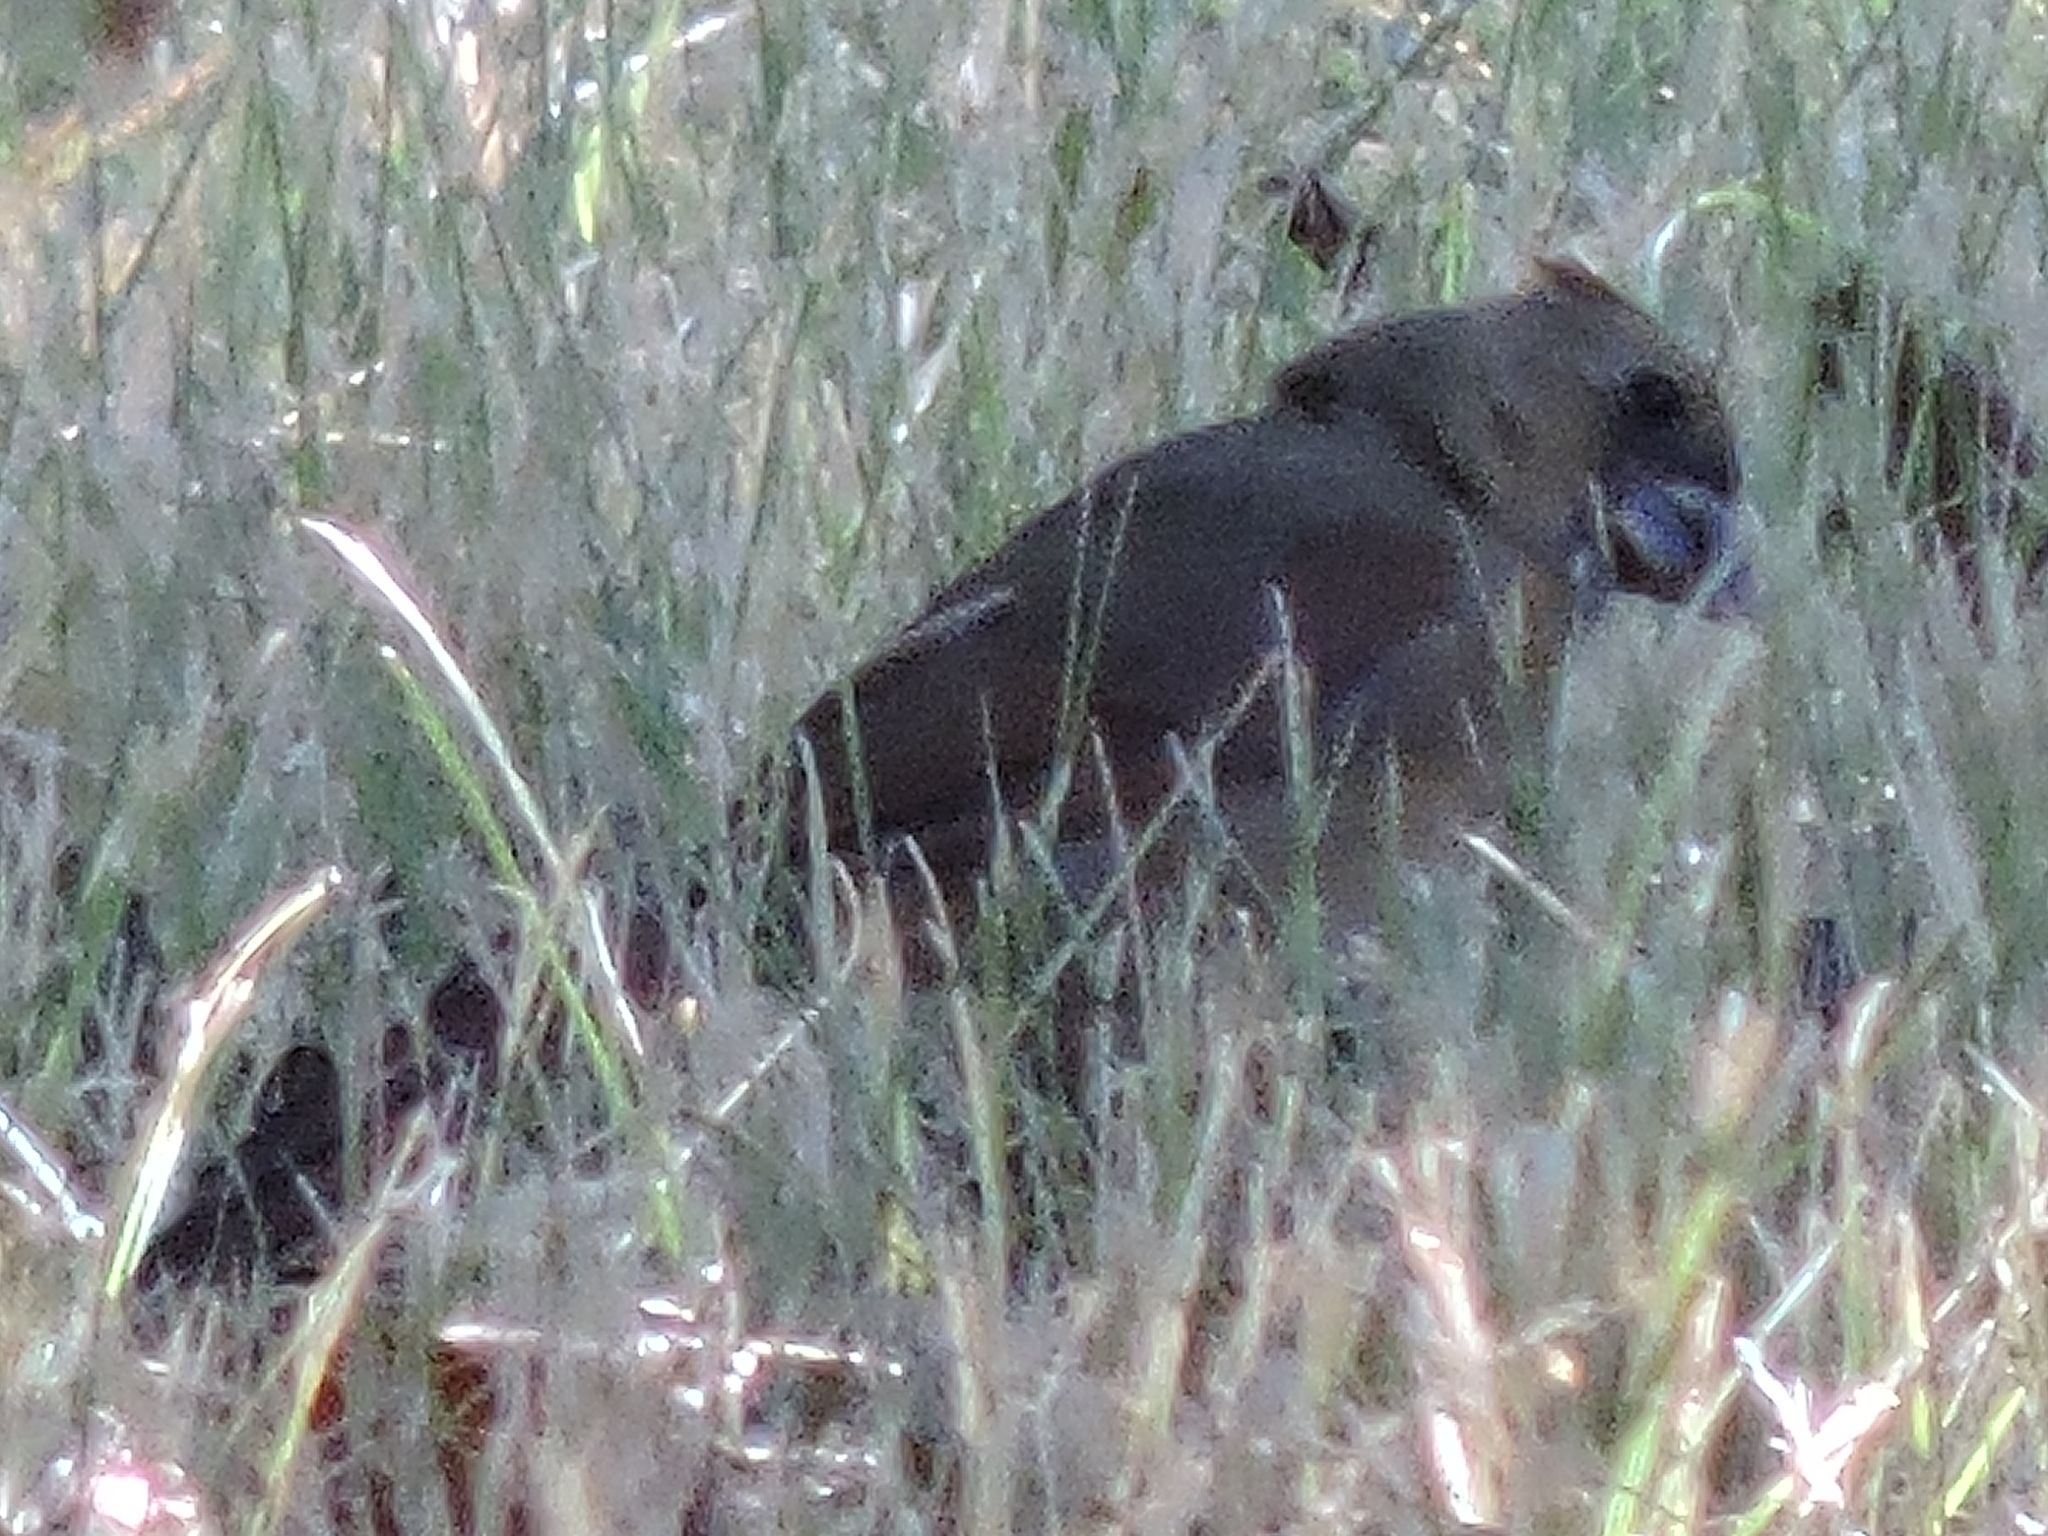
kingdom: Animalia
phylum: Chordata
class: Aves
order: Passeriformes
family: Cardinalidae
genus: Cardinalis
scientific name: Cardinalis cardinalis
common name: Northern cardinal
